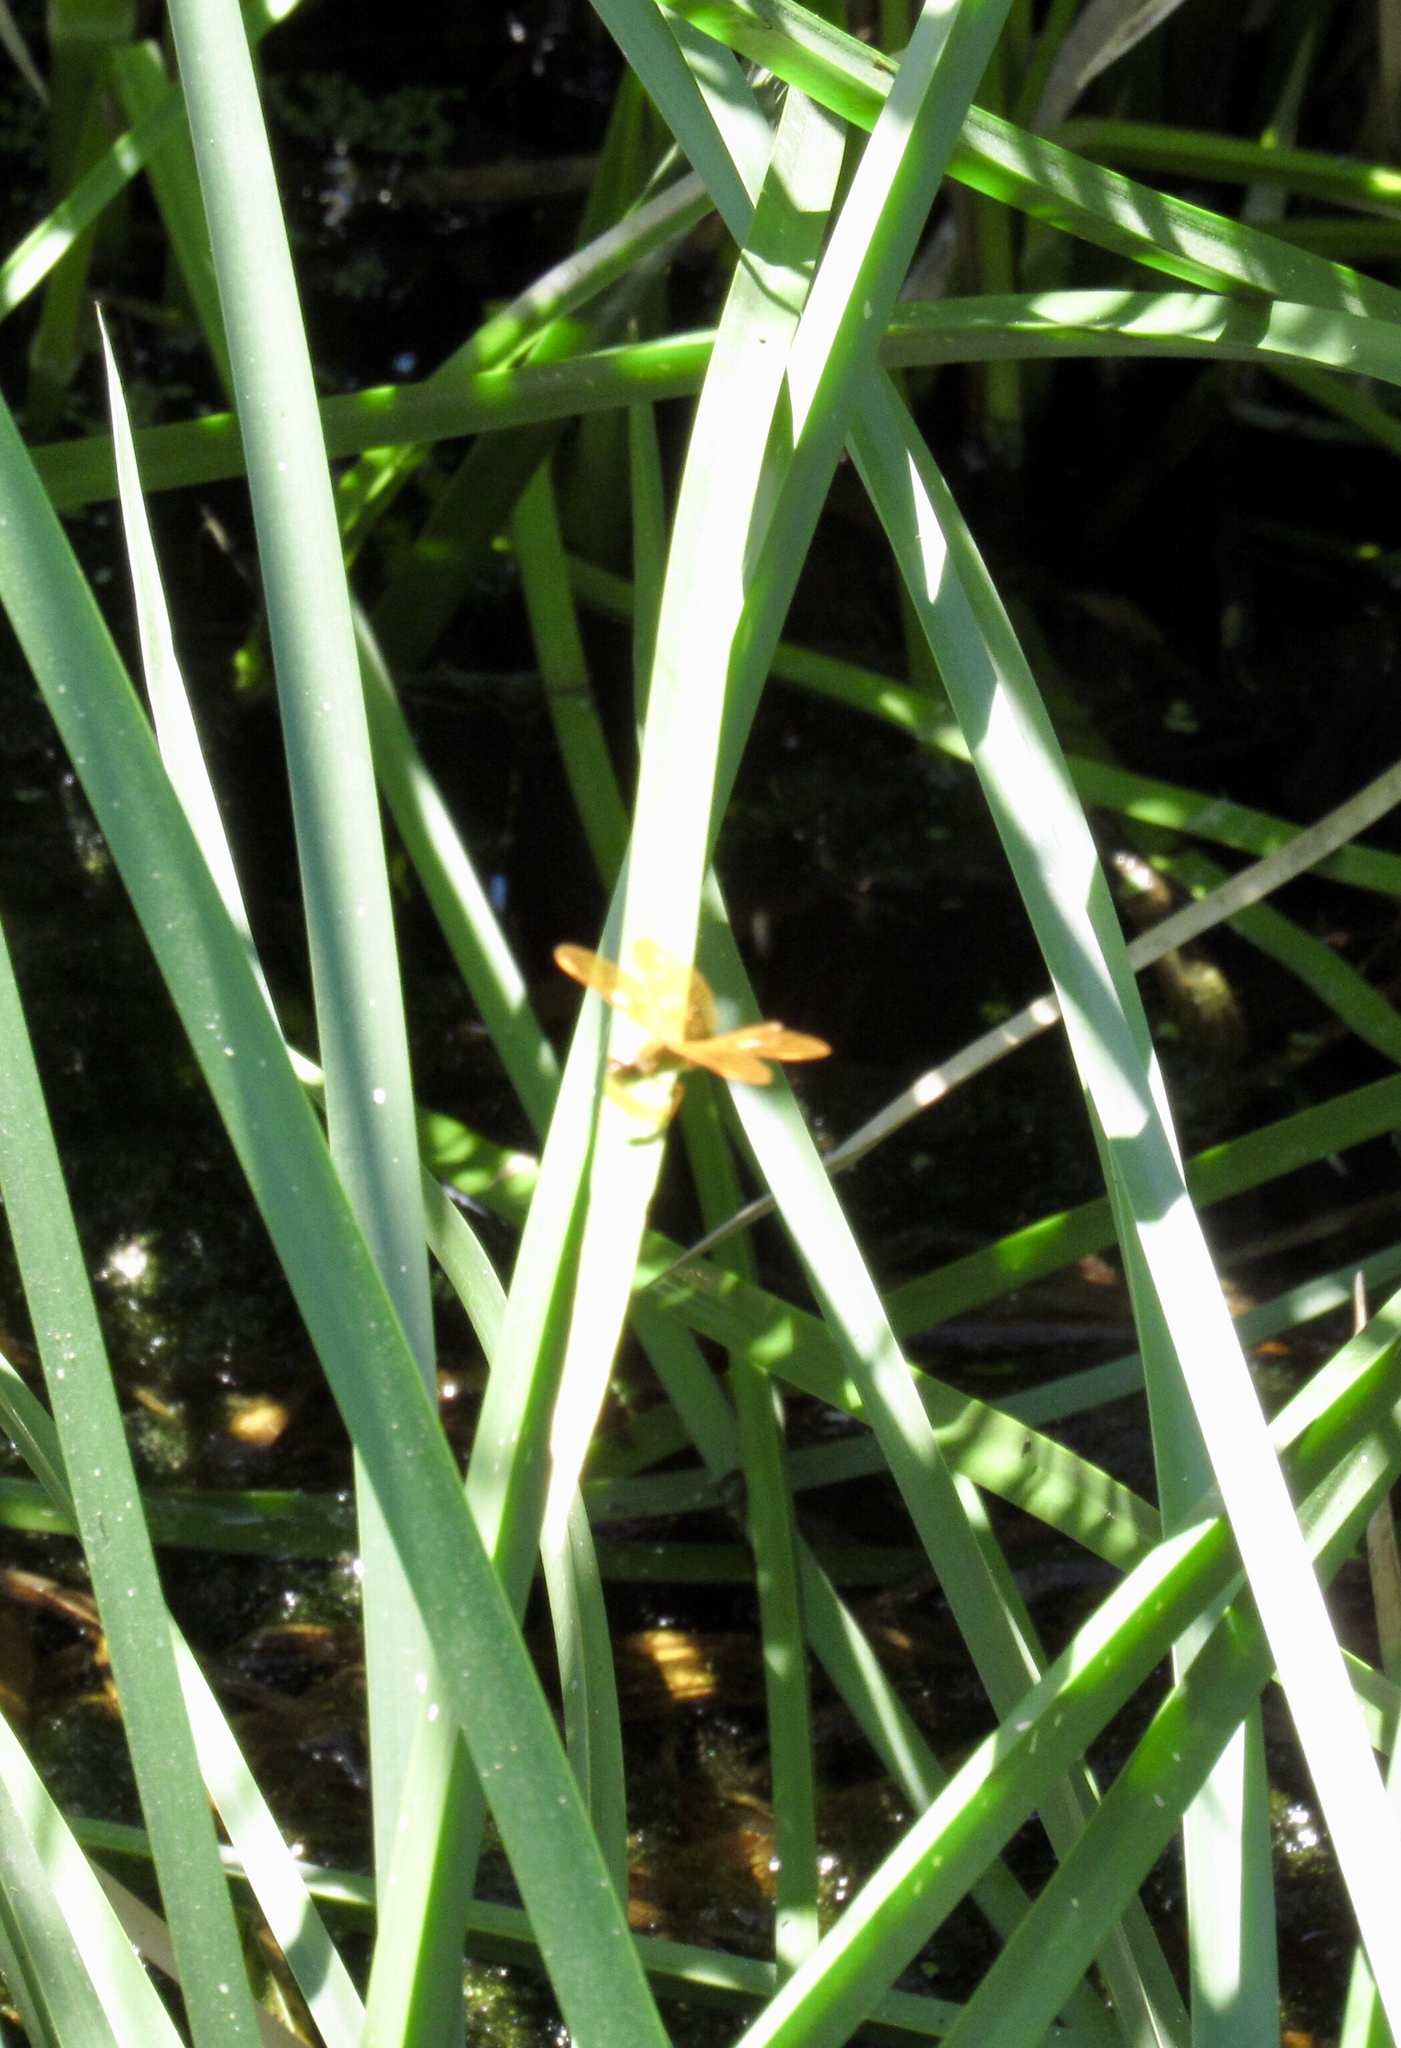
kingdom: Animalia
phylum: Arthropoda
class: Insecta
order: Odonata
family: Libellulidae
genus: Perithemis
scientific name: Perithemis intensa
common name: Mexican amberwing
